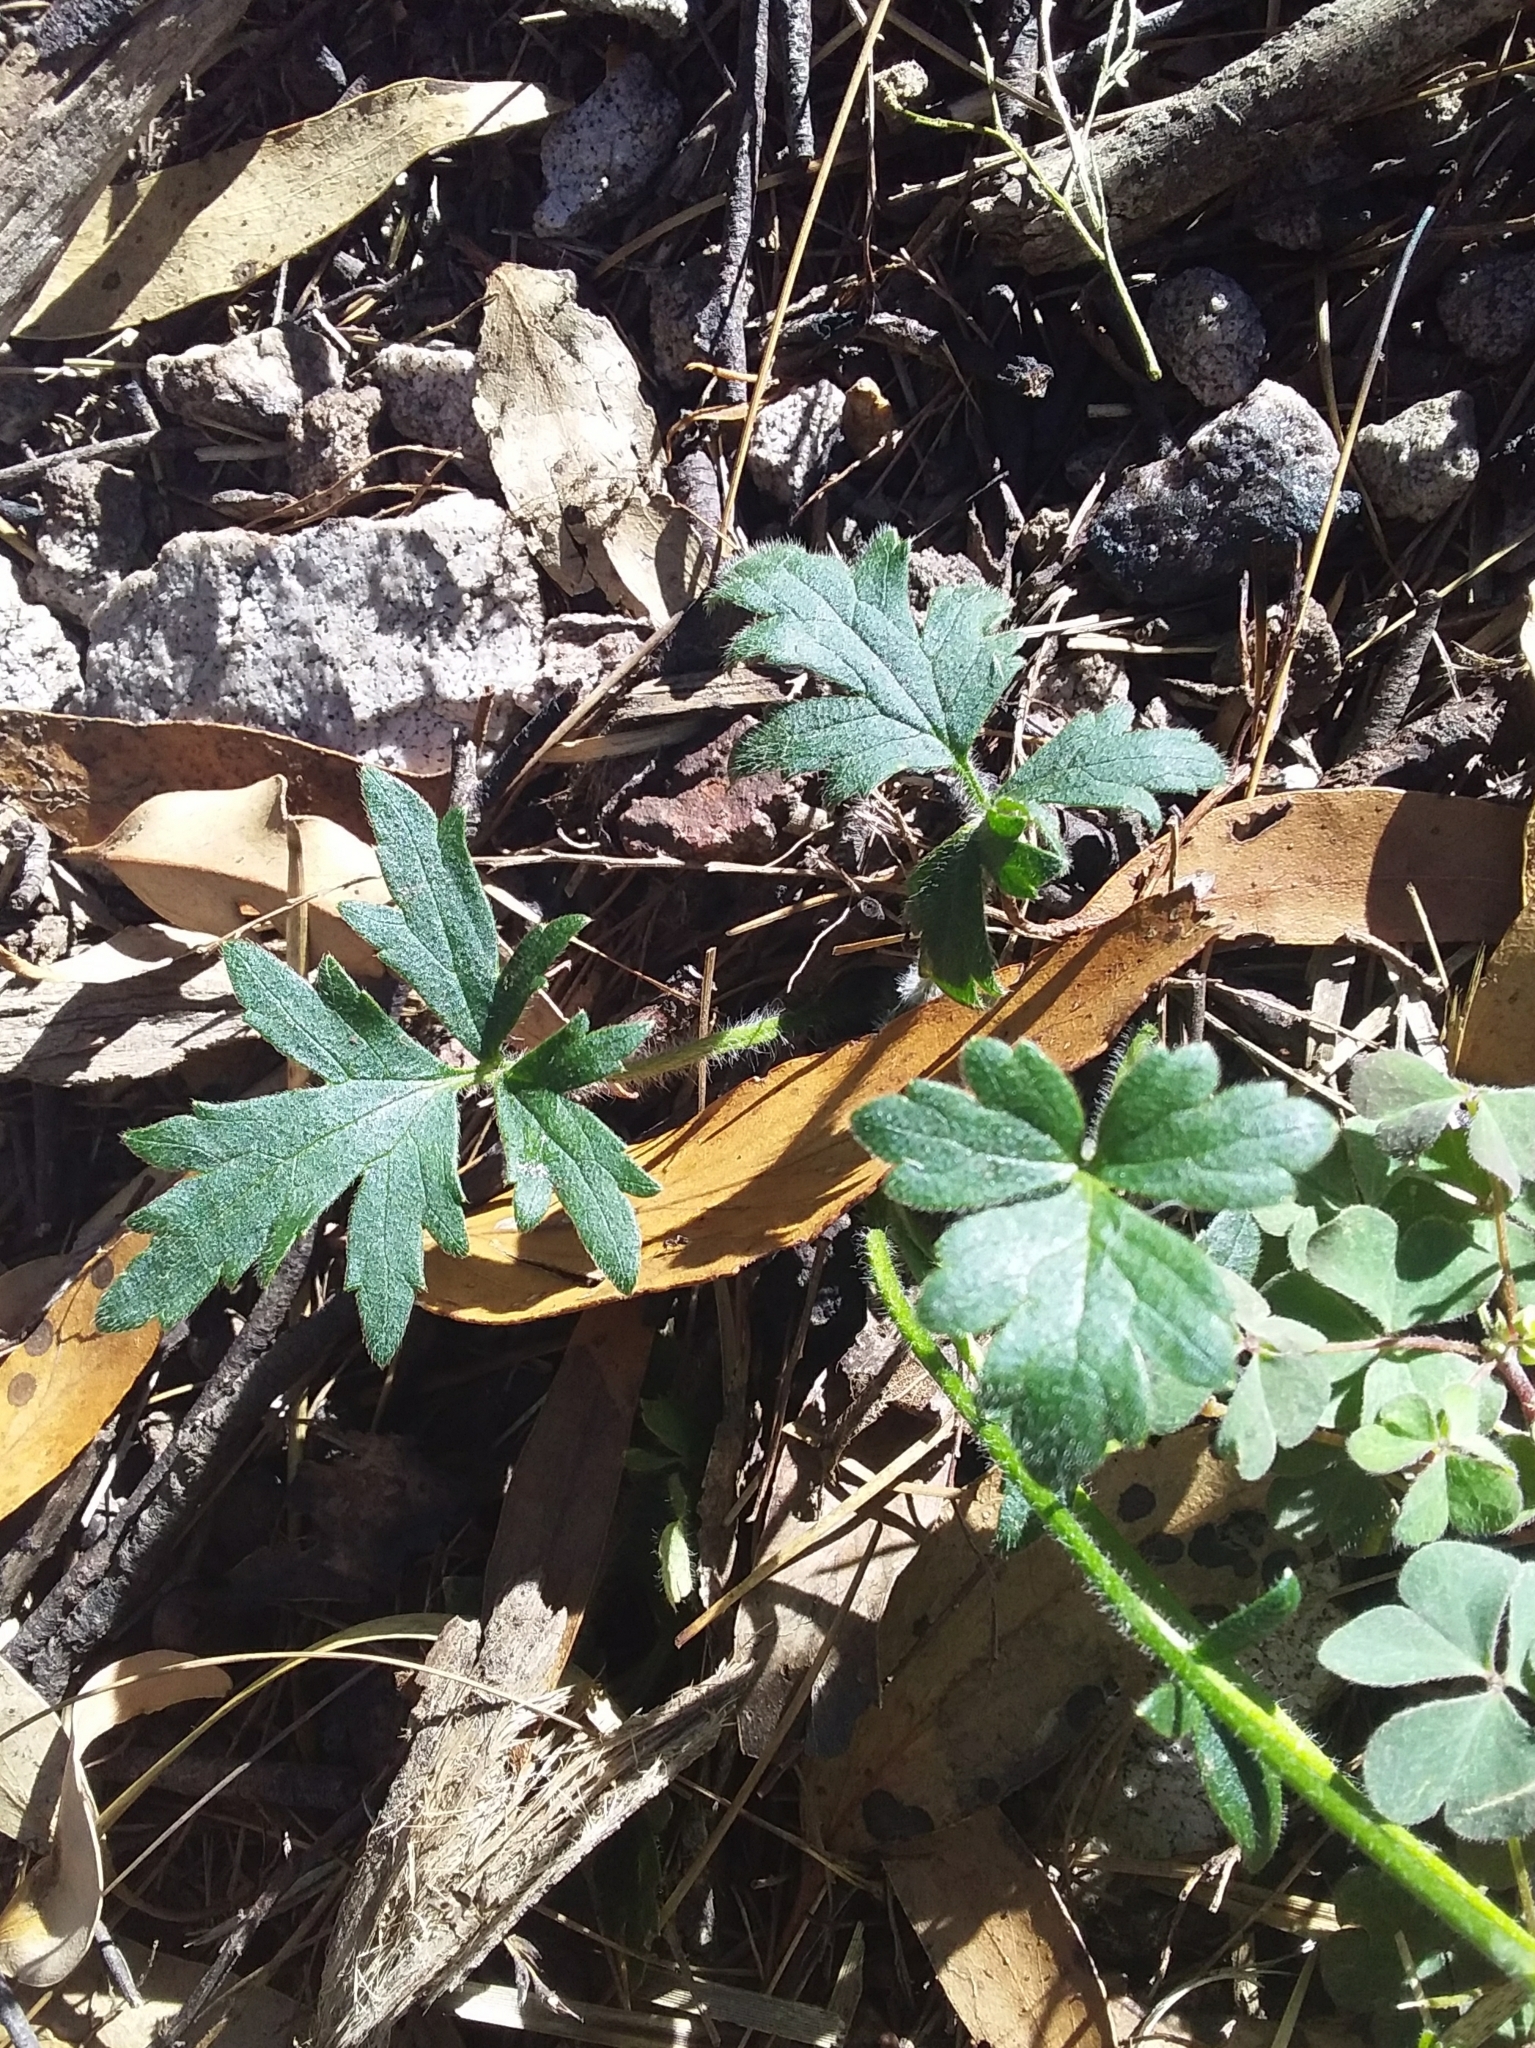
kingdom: Plantae
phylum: Tracheophyta
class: Magnoliopsida
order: Ranunculales
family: Ranunculaceae
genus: Ranunculus
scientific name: Ranunculus lappaceus
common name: Australian buttercup
